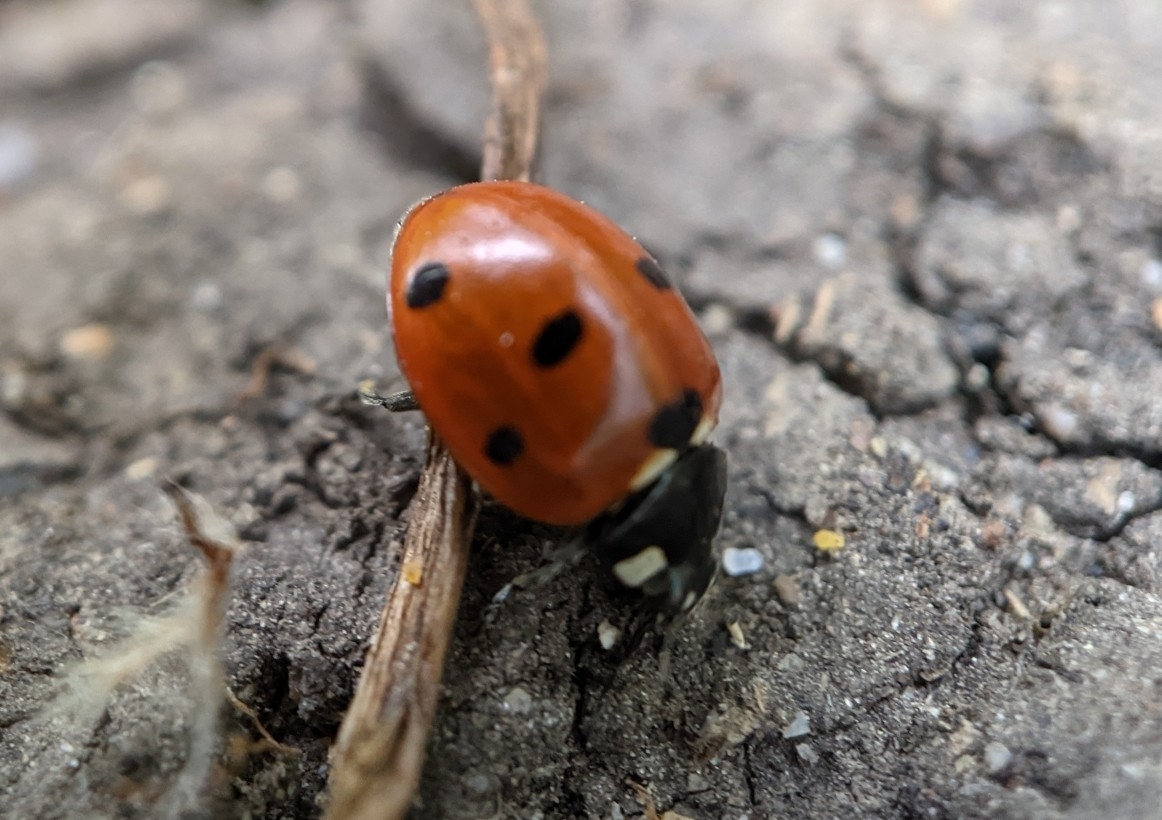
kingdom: Animalia
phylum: Arthropoda
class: Insecta
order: Coleoptera
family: Coccinellidae
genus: Coccinella
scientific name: Coccinella septempunctata
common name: Sevenspotted lady beetle
